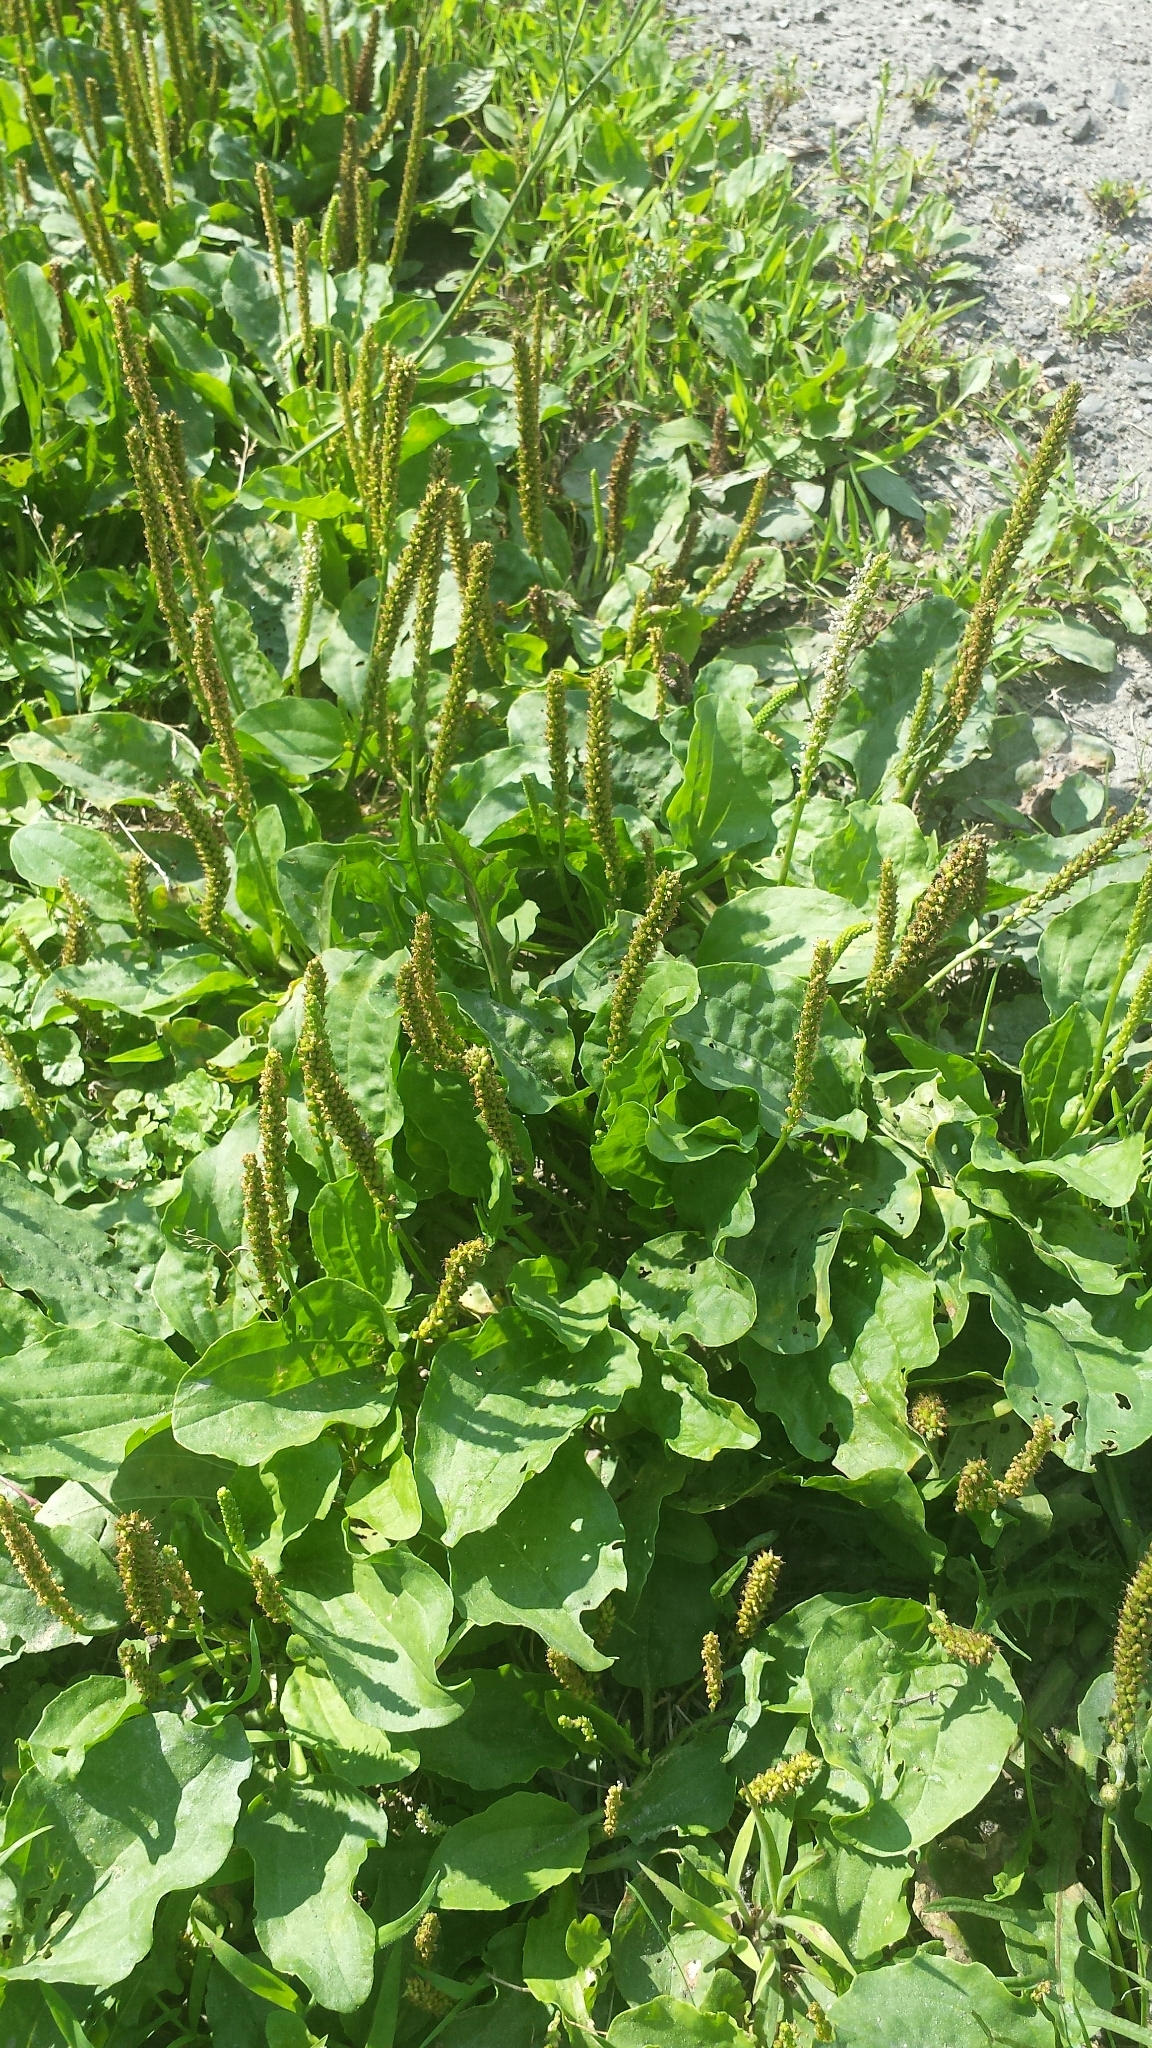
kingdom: Plantae
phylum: Tracheophyta
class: Magnoliopsida
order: Lamiales
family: Plantaginaceae
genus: Plantago
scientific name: Plantago major
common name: Common plantain
